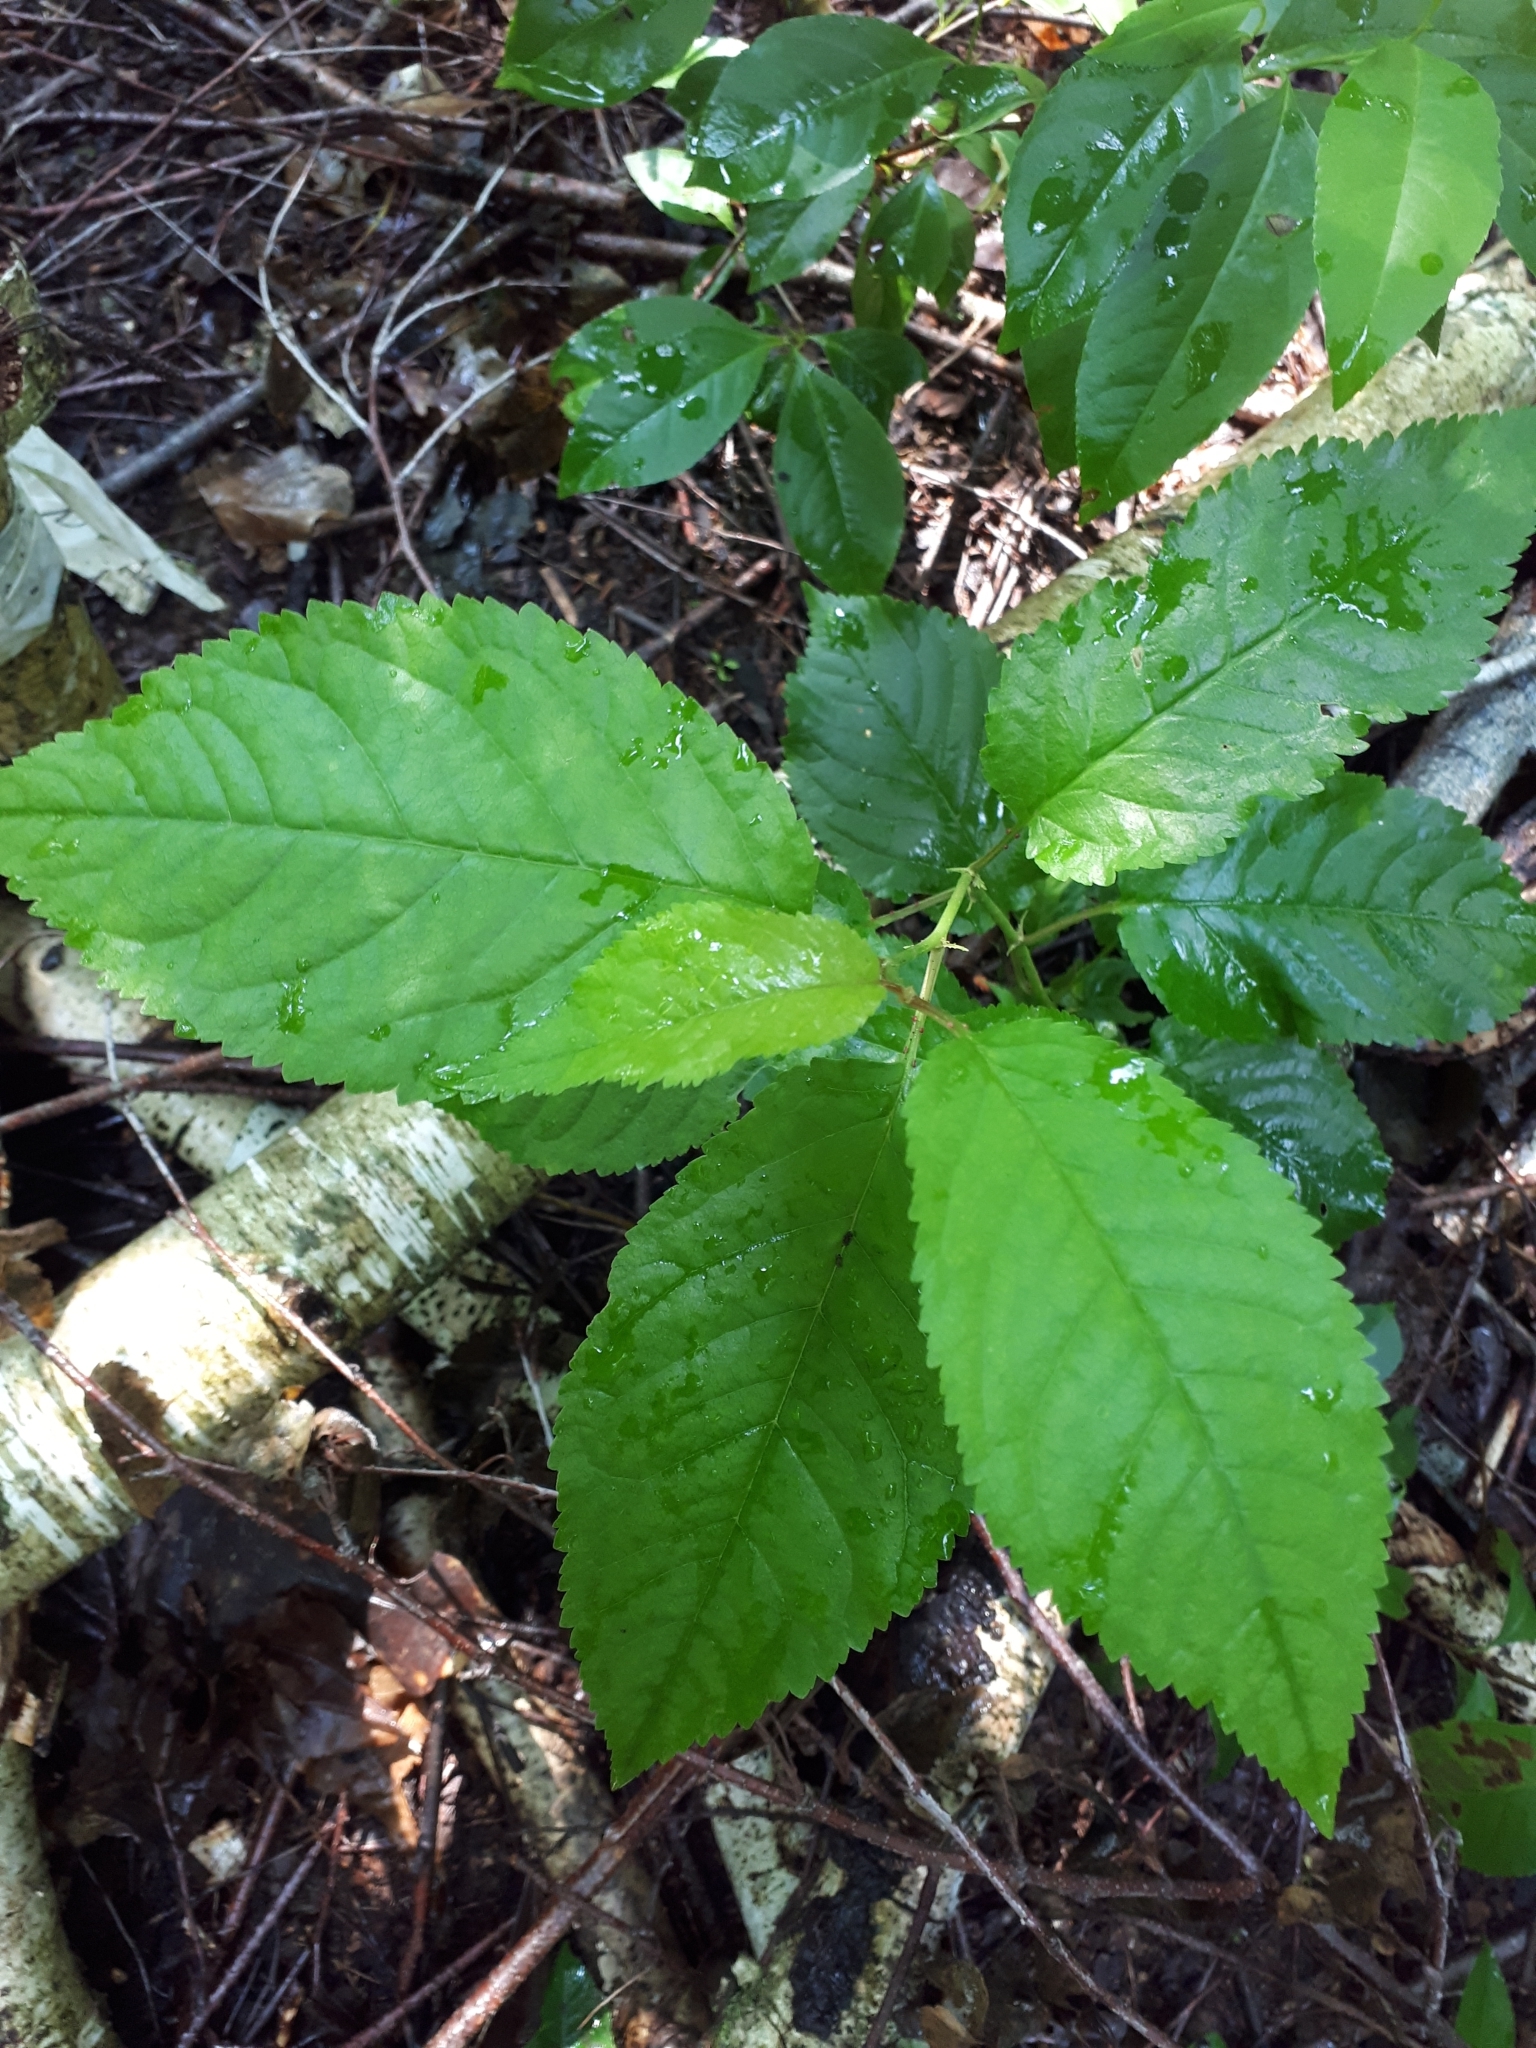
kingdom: Plantae
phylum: Tracheophyta
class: Magnoliopsida
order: Rosales
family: Rosaceae
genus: Prunus
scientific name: Prunus avium
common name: Sweet cherry
